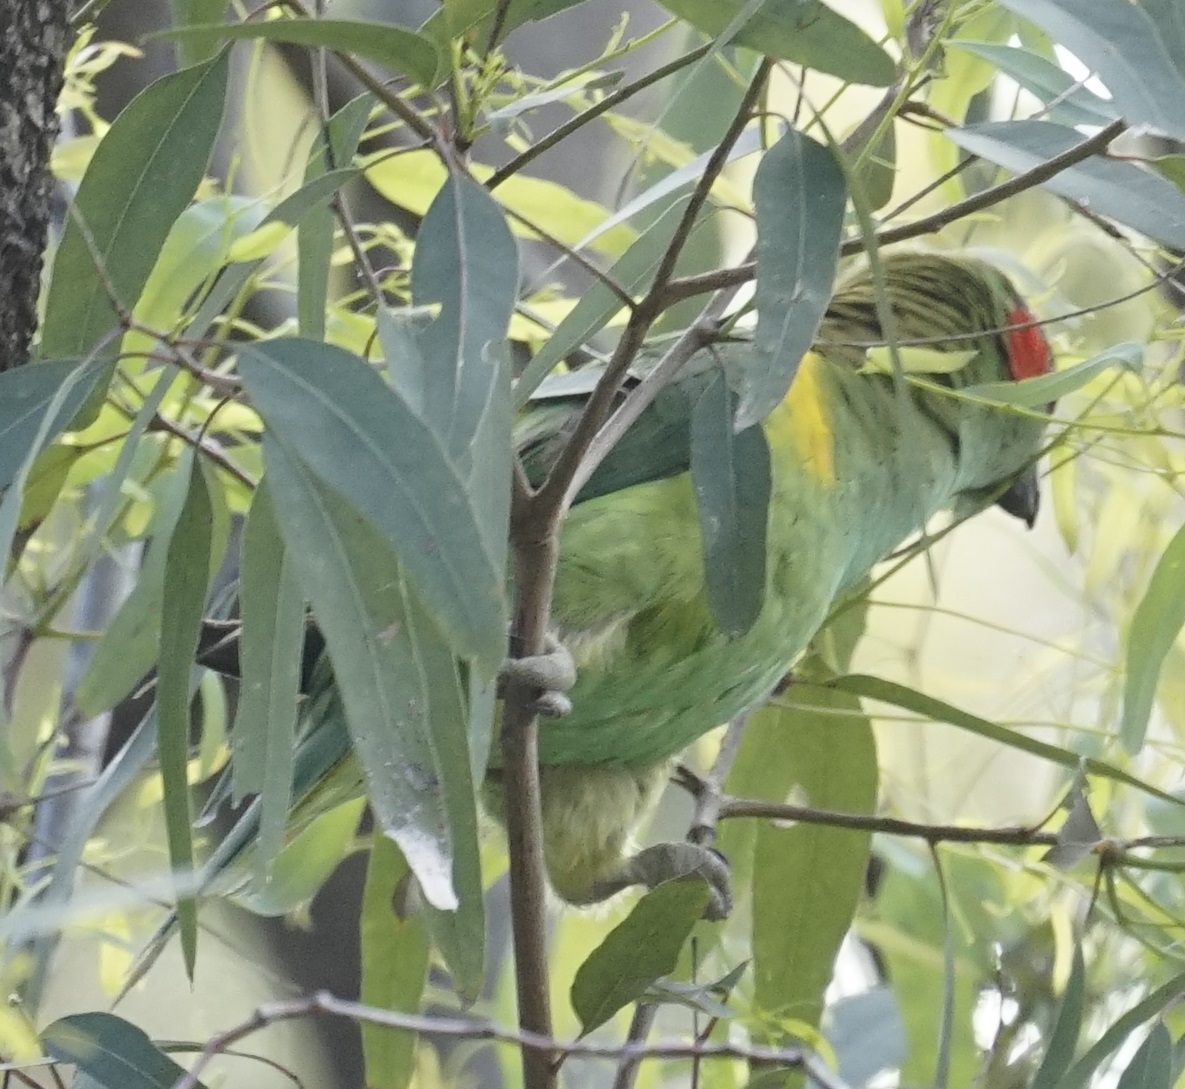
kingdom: Animalia
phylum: Chordata
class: Aves
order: Psittaciformes
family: Psittacidae
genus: Glossopsitta
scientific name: Glossopsitta concinna
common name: Musk lorikeet
